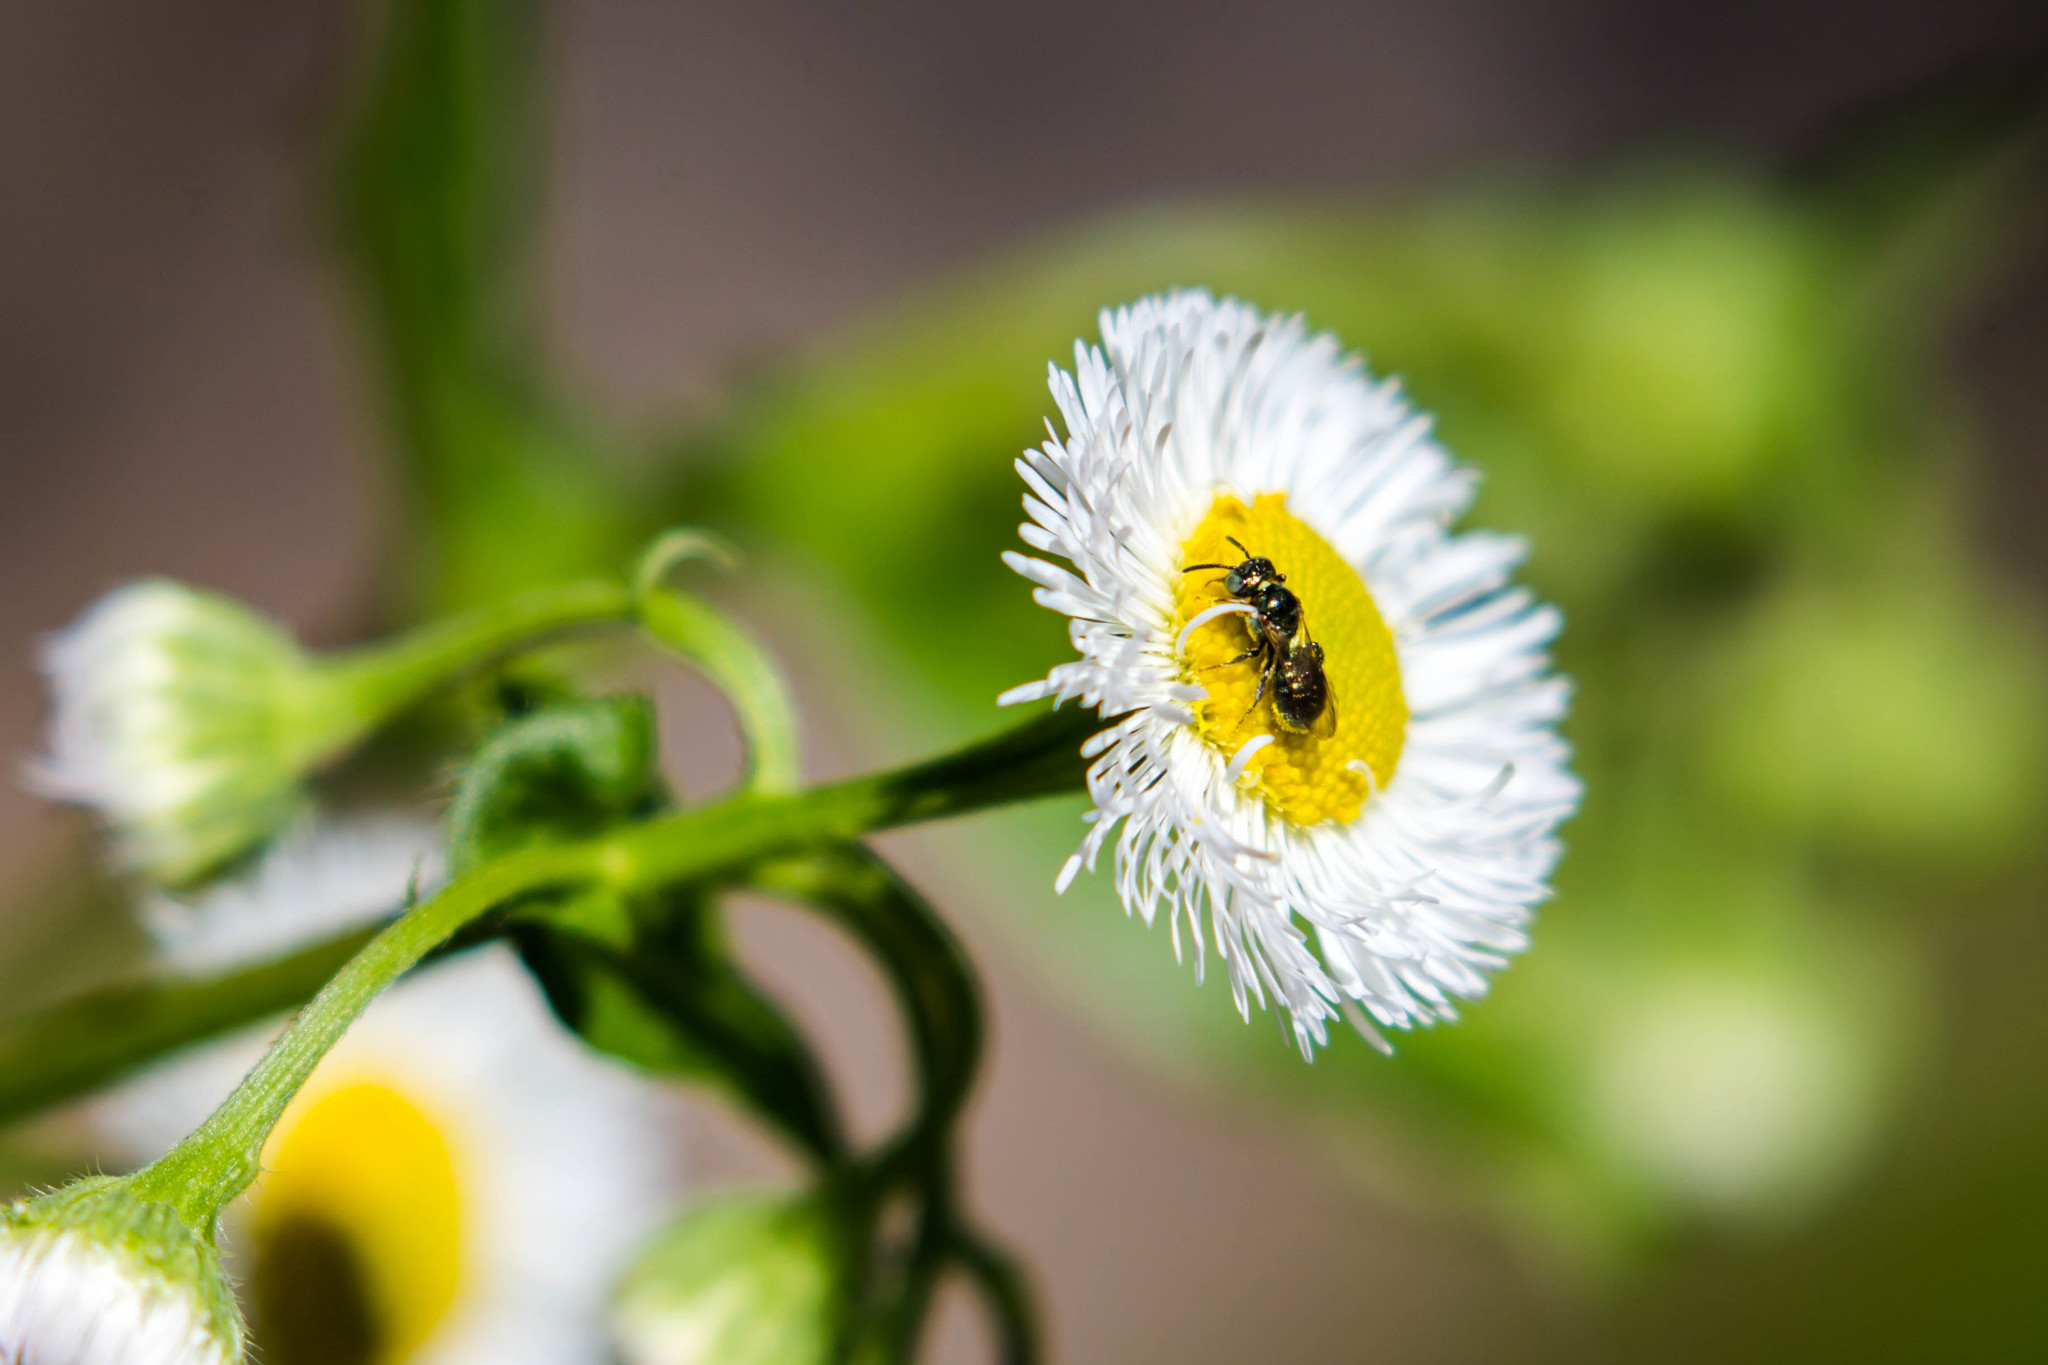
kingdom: Animalia
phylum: Arthropoda
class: Insecta
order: Hymenoptera
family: Apidae
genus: Ceratina
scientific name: Ceratina strenua
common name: Nimble carpenter bee
